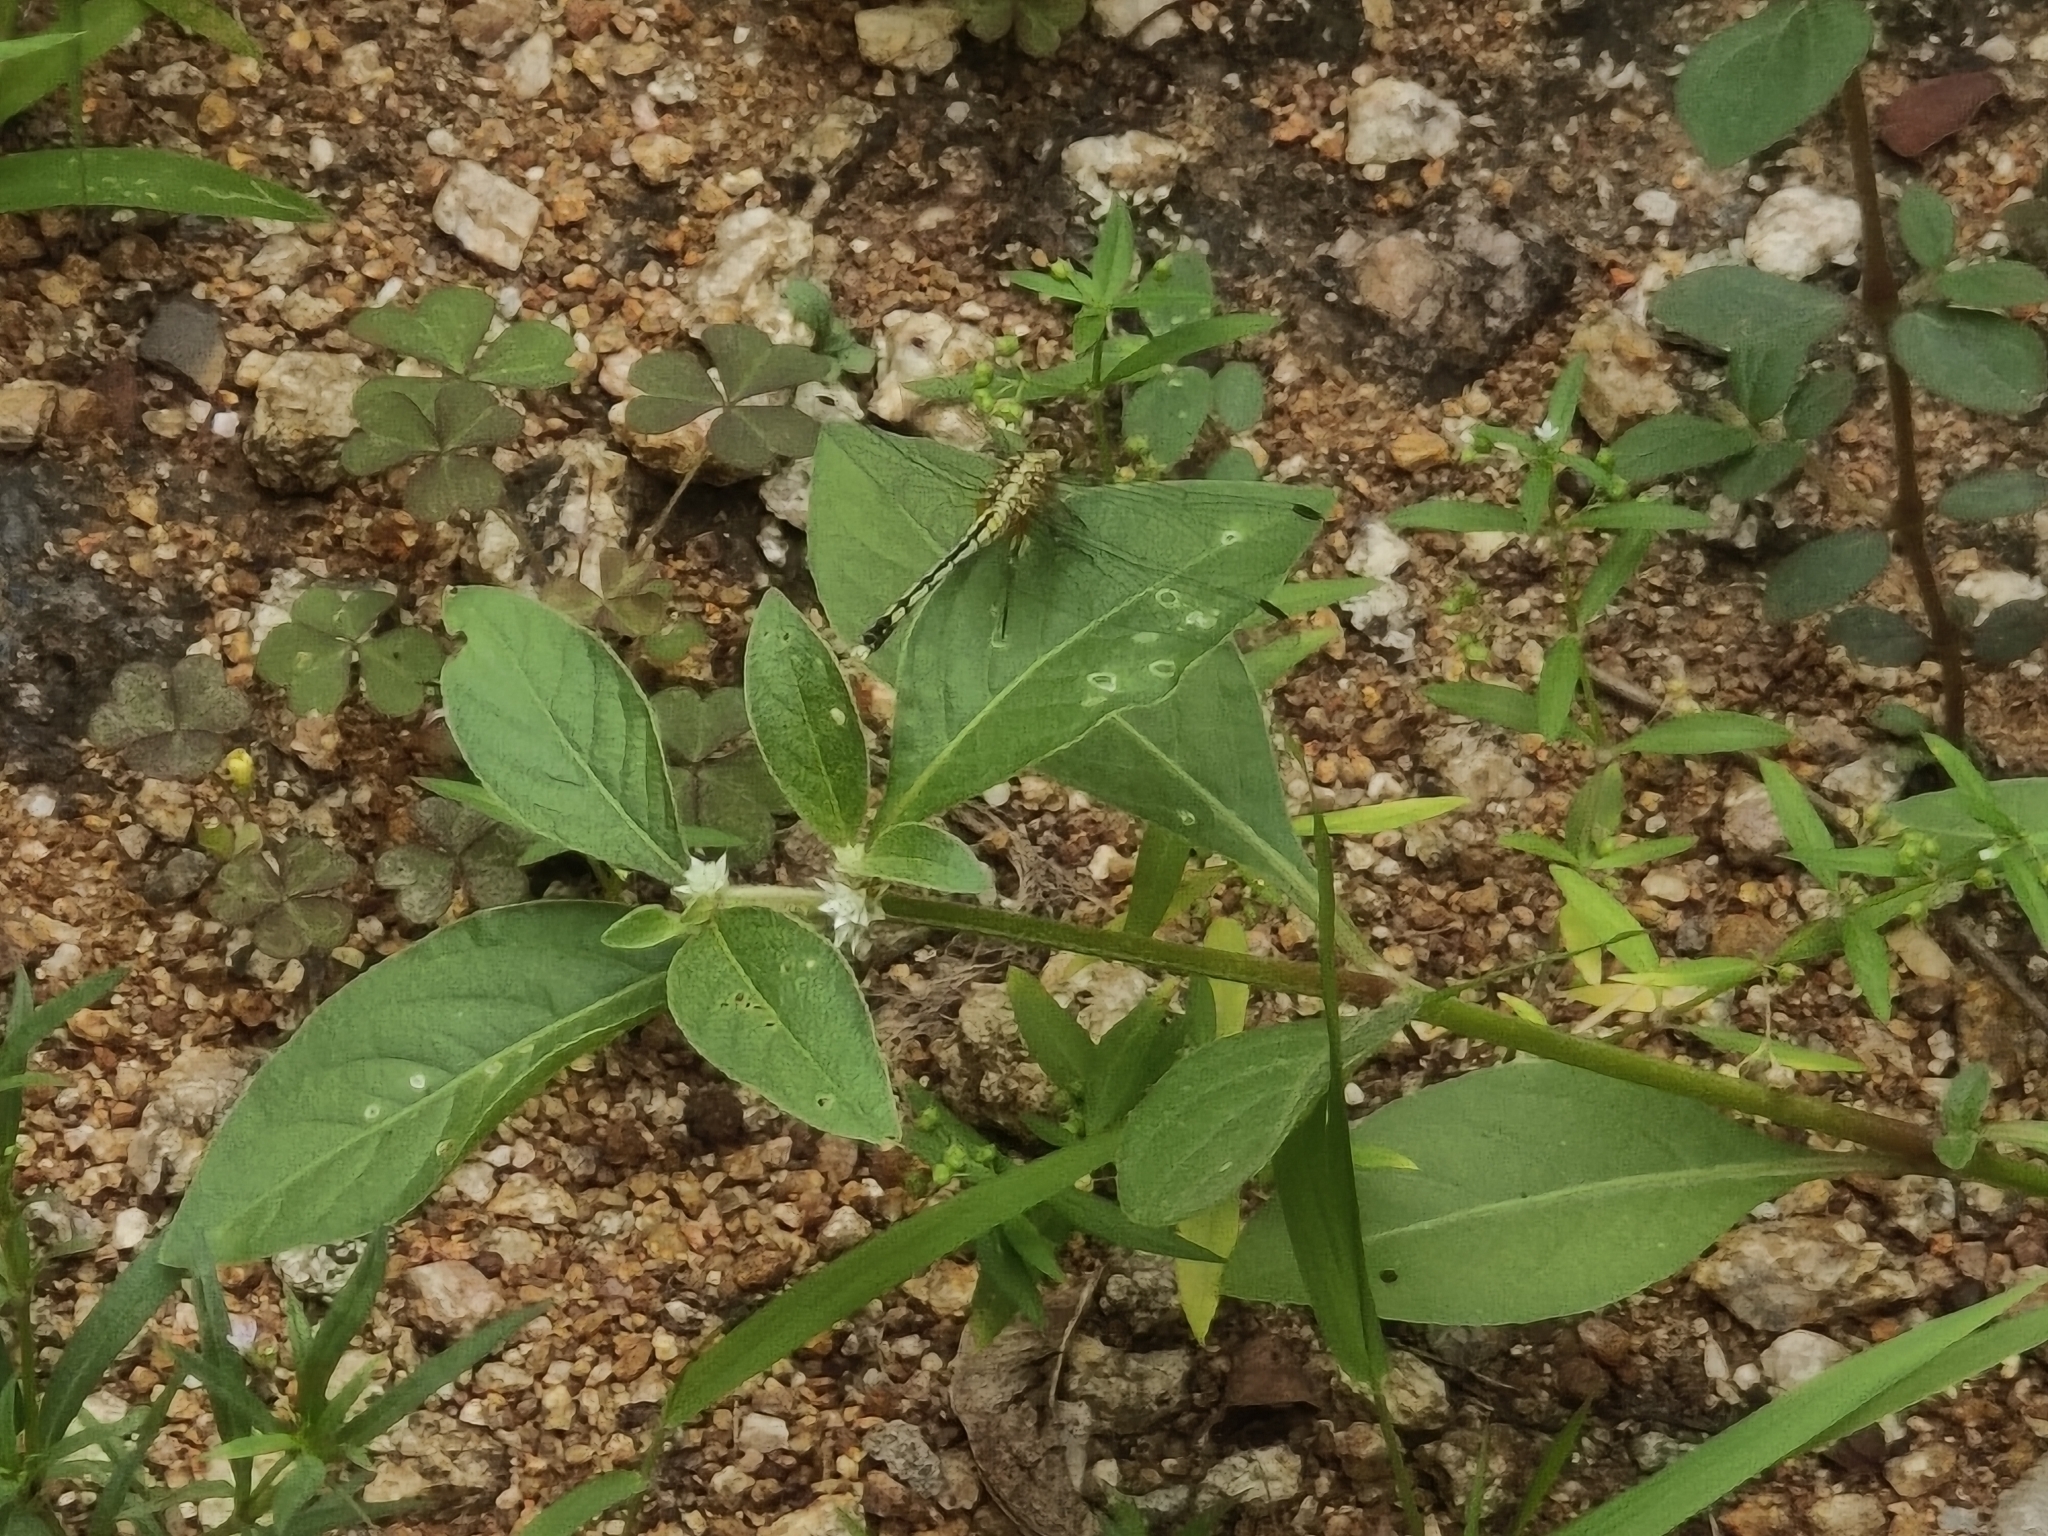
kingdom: Animalia
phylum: Arthropoda
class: Insecta
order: Odonata
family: Libellulidae
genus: Diplacodes
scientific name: Diplacodes trivialis
